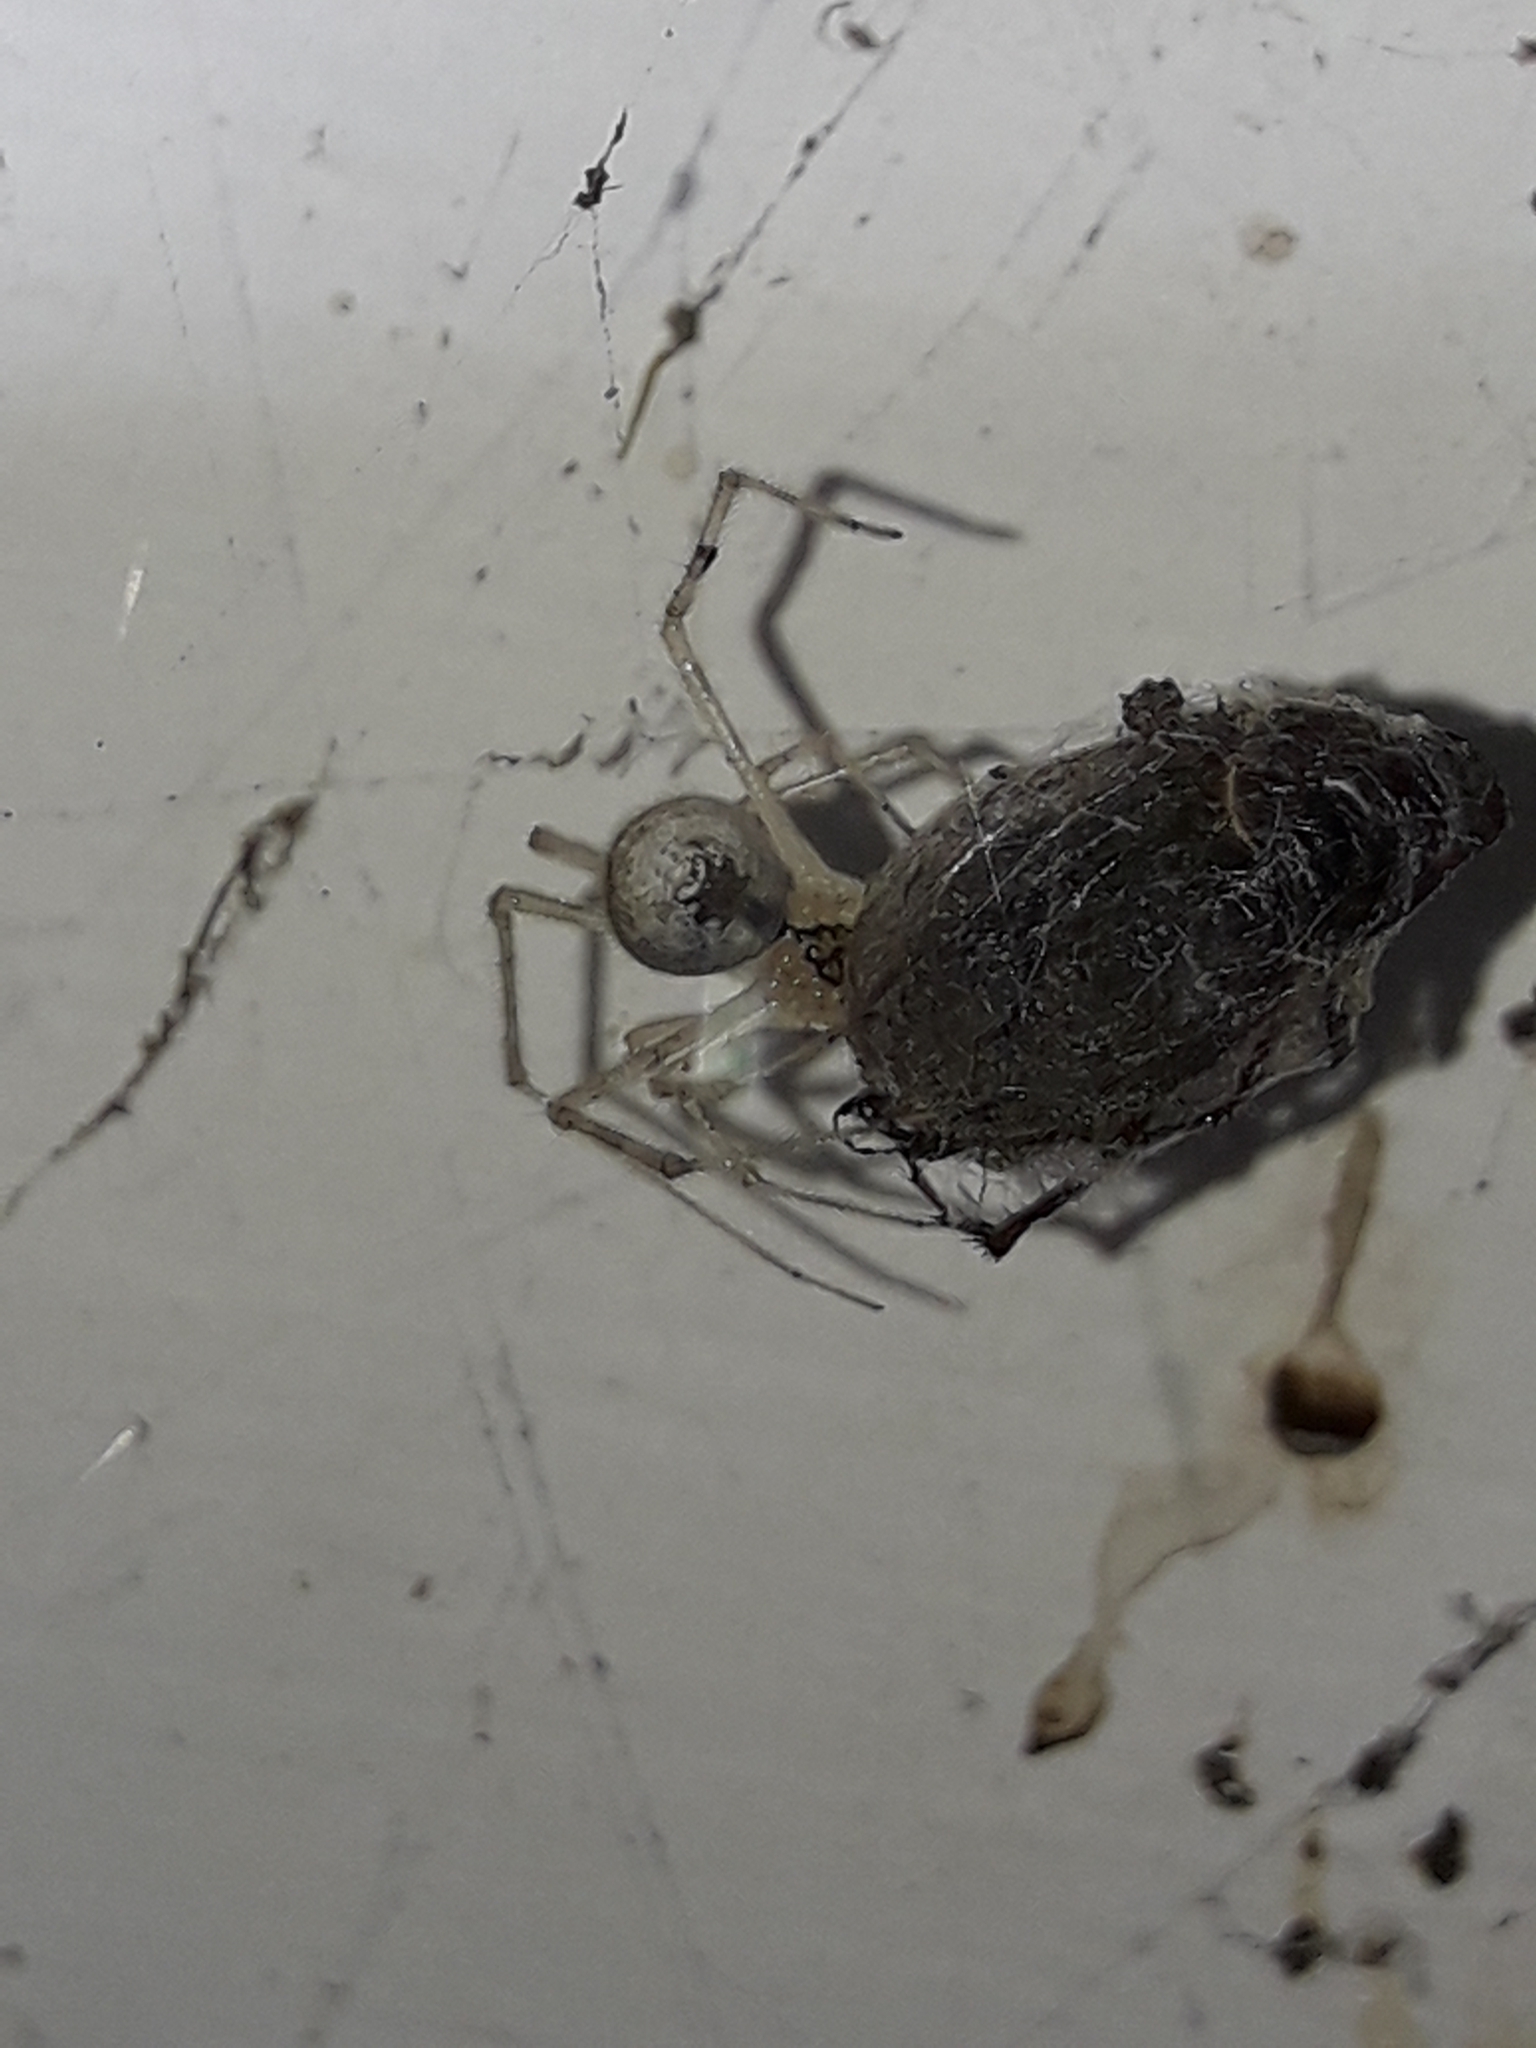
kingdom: Animalia
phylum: Arthropoda
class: Arachnida
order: Araneae
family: Theridiidae
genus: Cryptachaea
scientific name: Cryptachaea gigantipes
